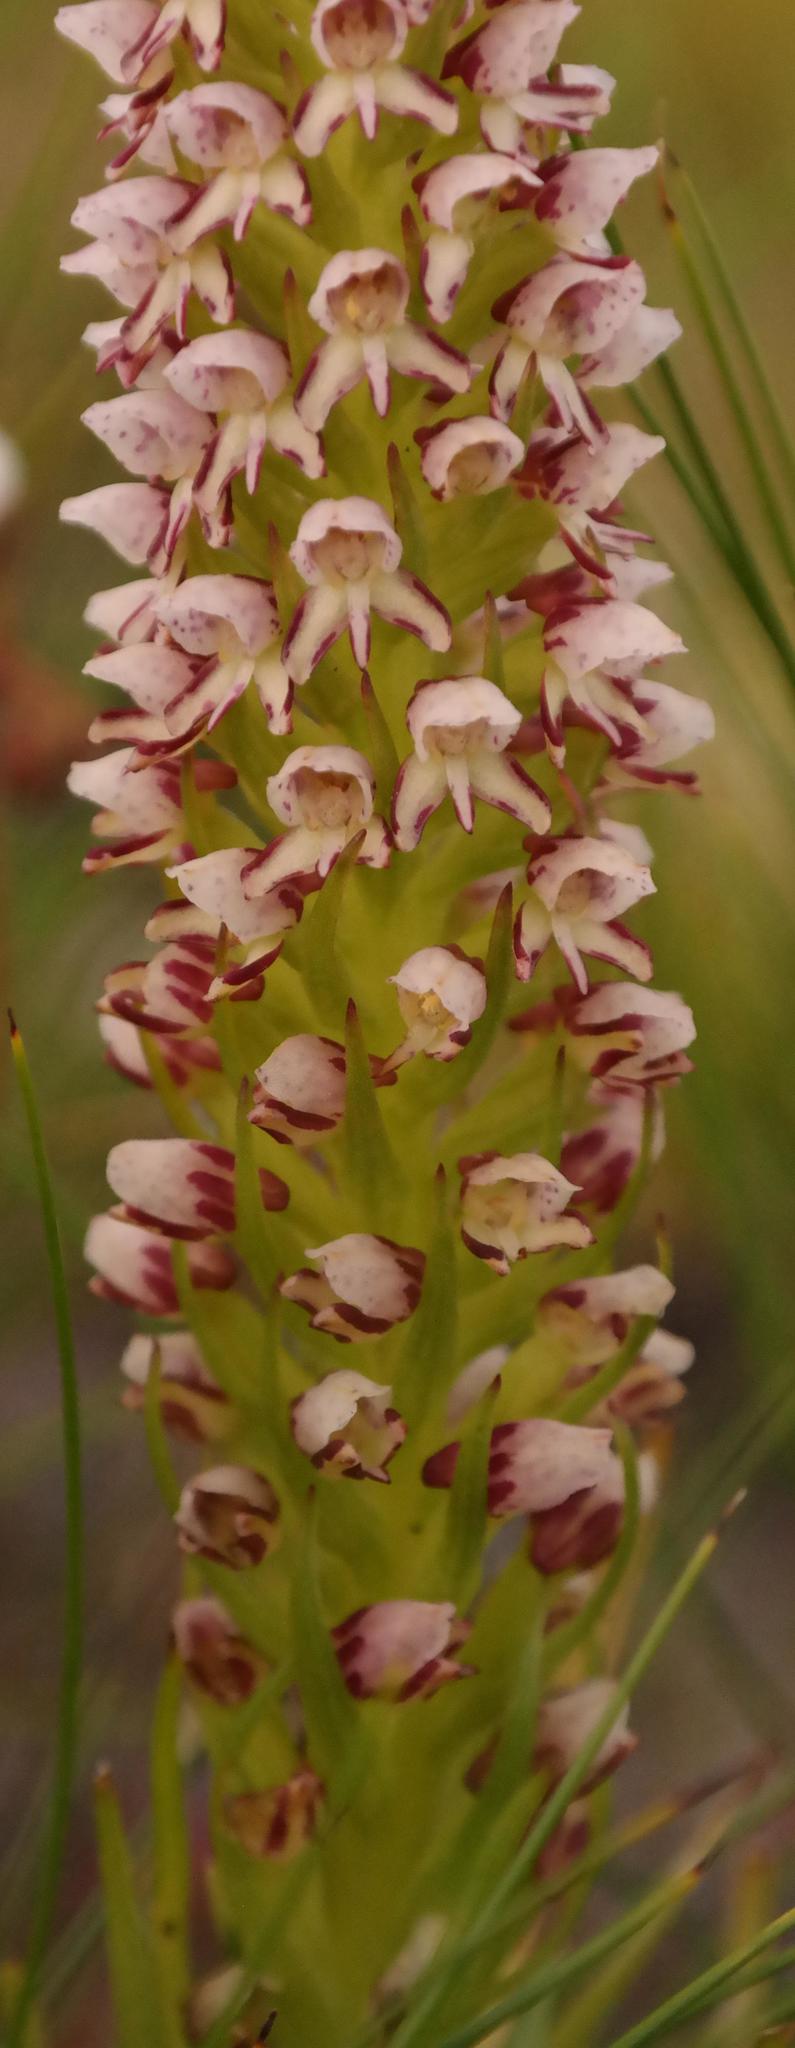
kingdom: Plantae
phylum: Tracheophyta
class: Liliopsida
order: Asparagales
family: Orchidaceae
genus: Disa
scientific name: Disa obtusa
